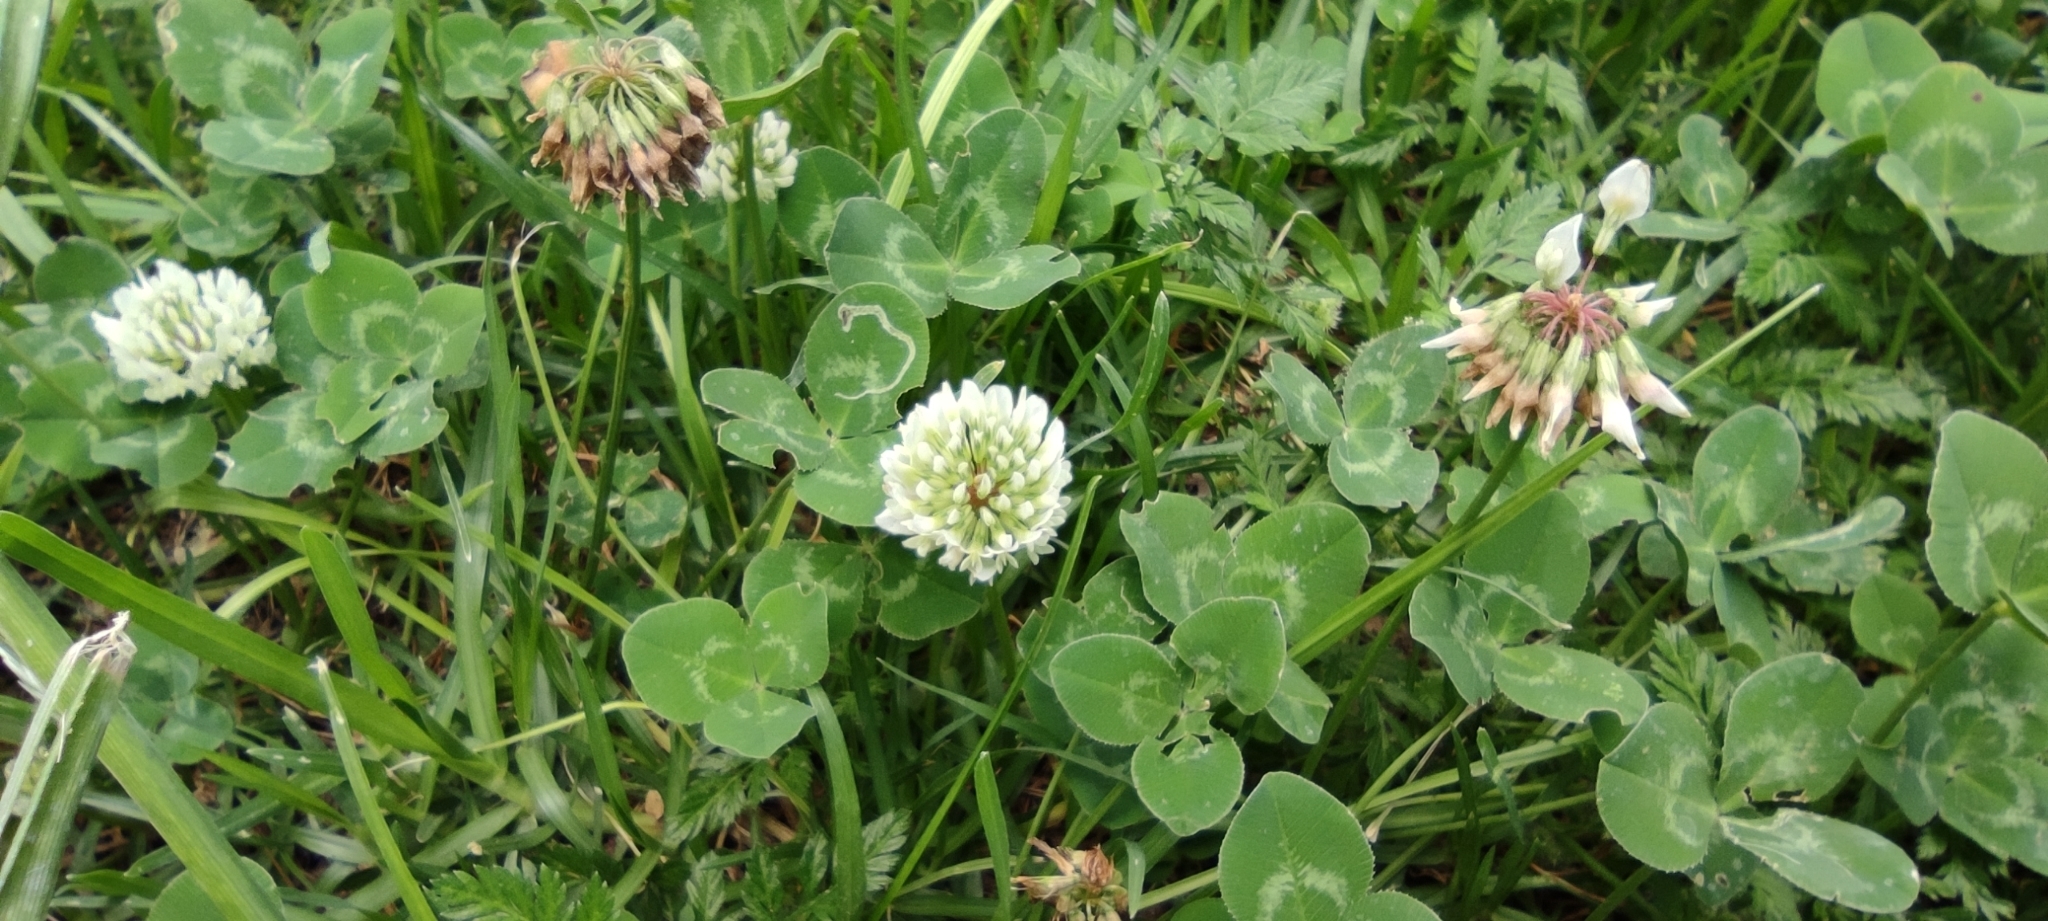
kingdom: Plantae
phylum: Tracheophyta
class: Magnoliopsida
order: Fabales
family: Fabaceae
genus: Trifolium
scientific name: Trifolium repens
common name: White clover
